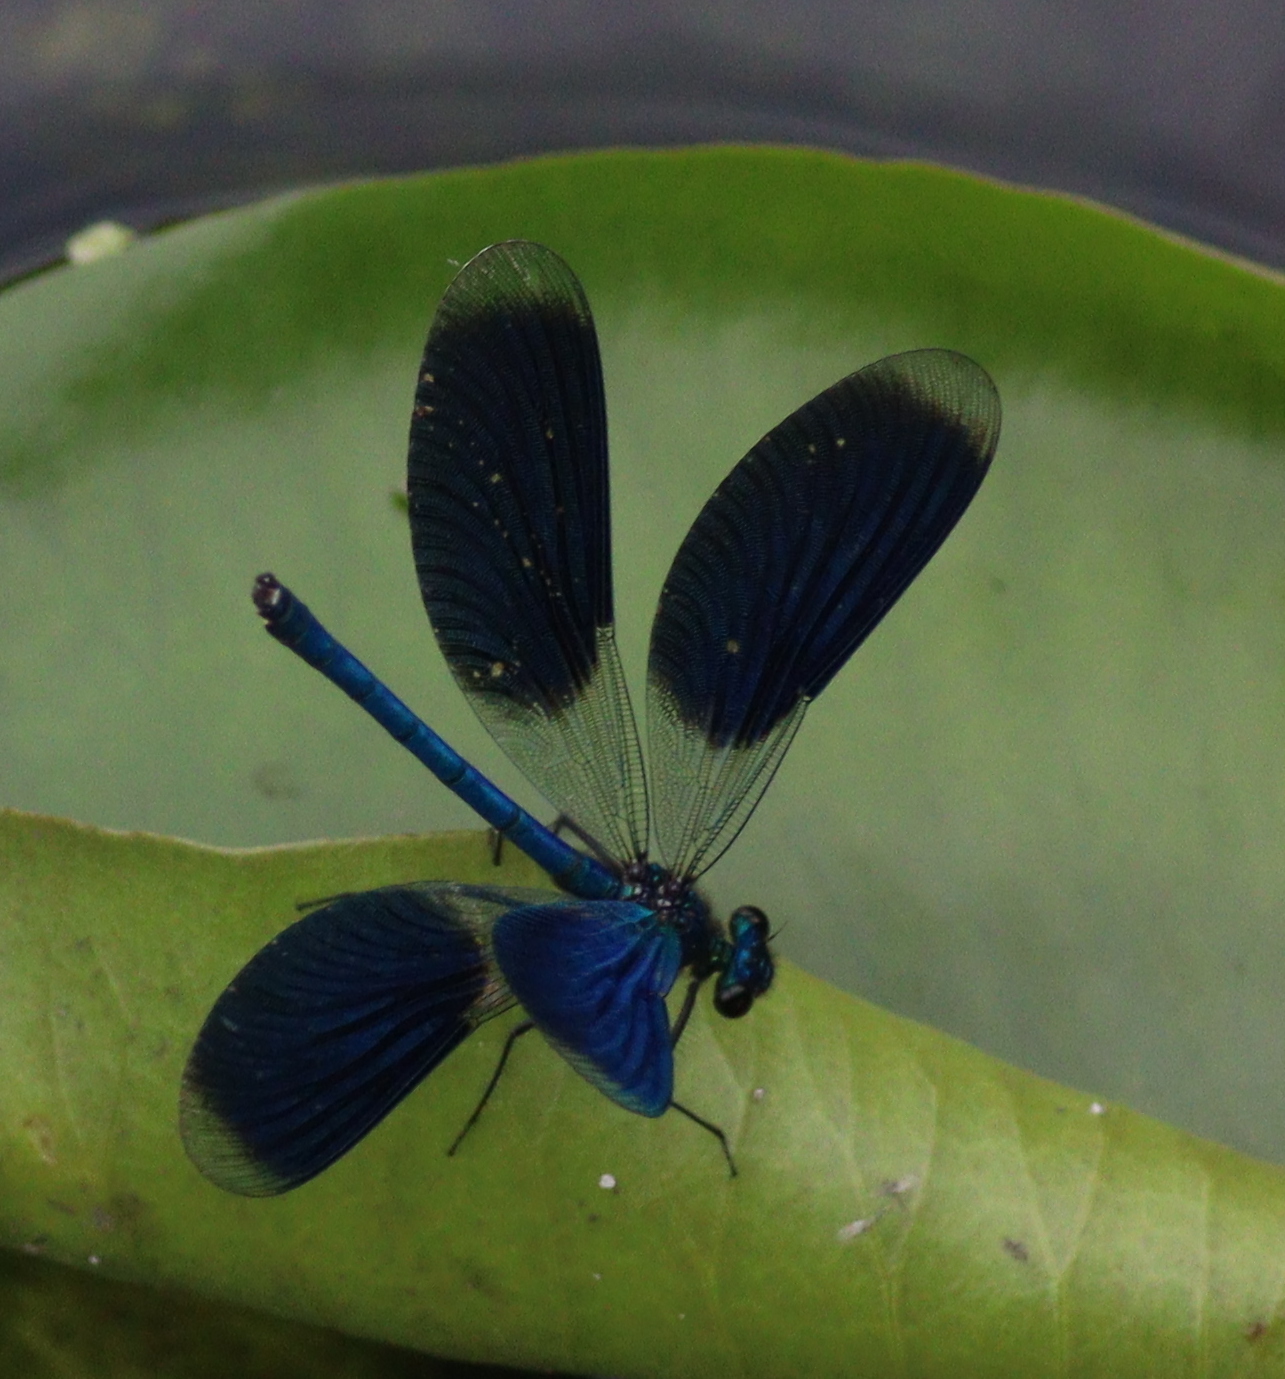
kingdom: Animalia
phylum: Arthropoda
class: Insecta
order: Odonata
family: Calopterygidae
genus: Calopteryx
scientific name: Calopteryx splendens
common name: Banded demoiselle
